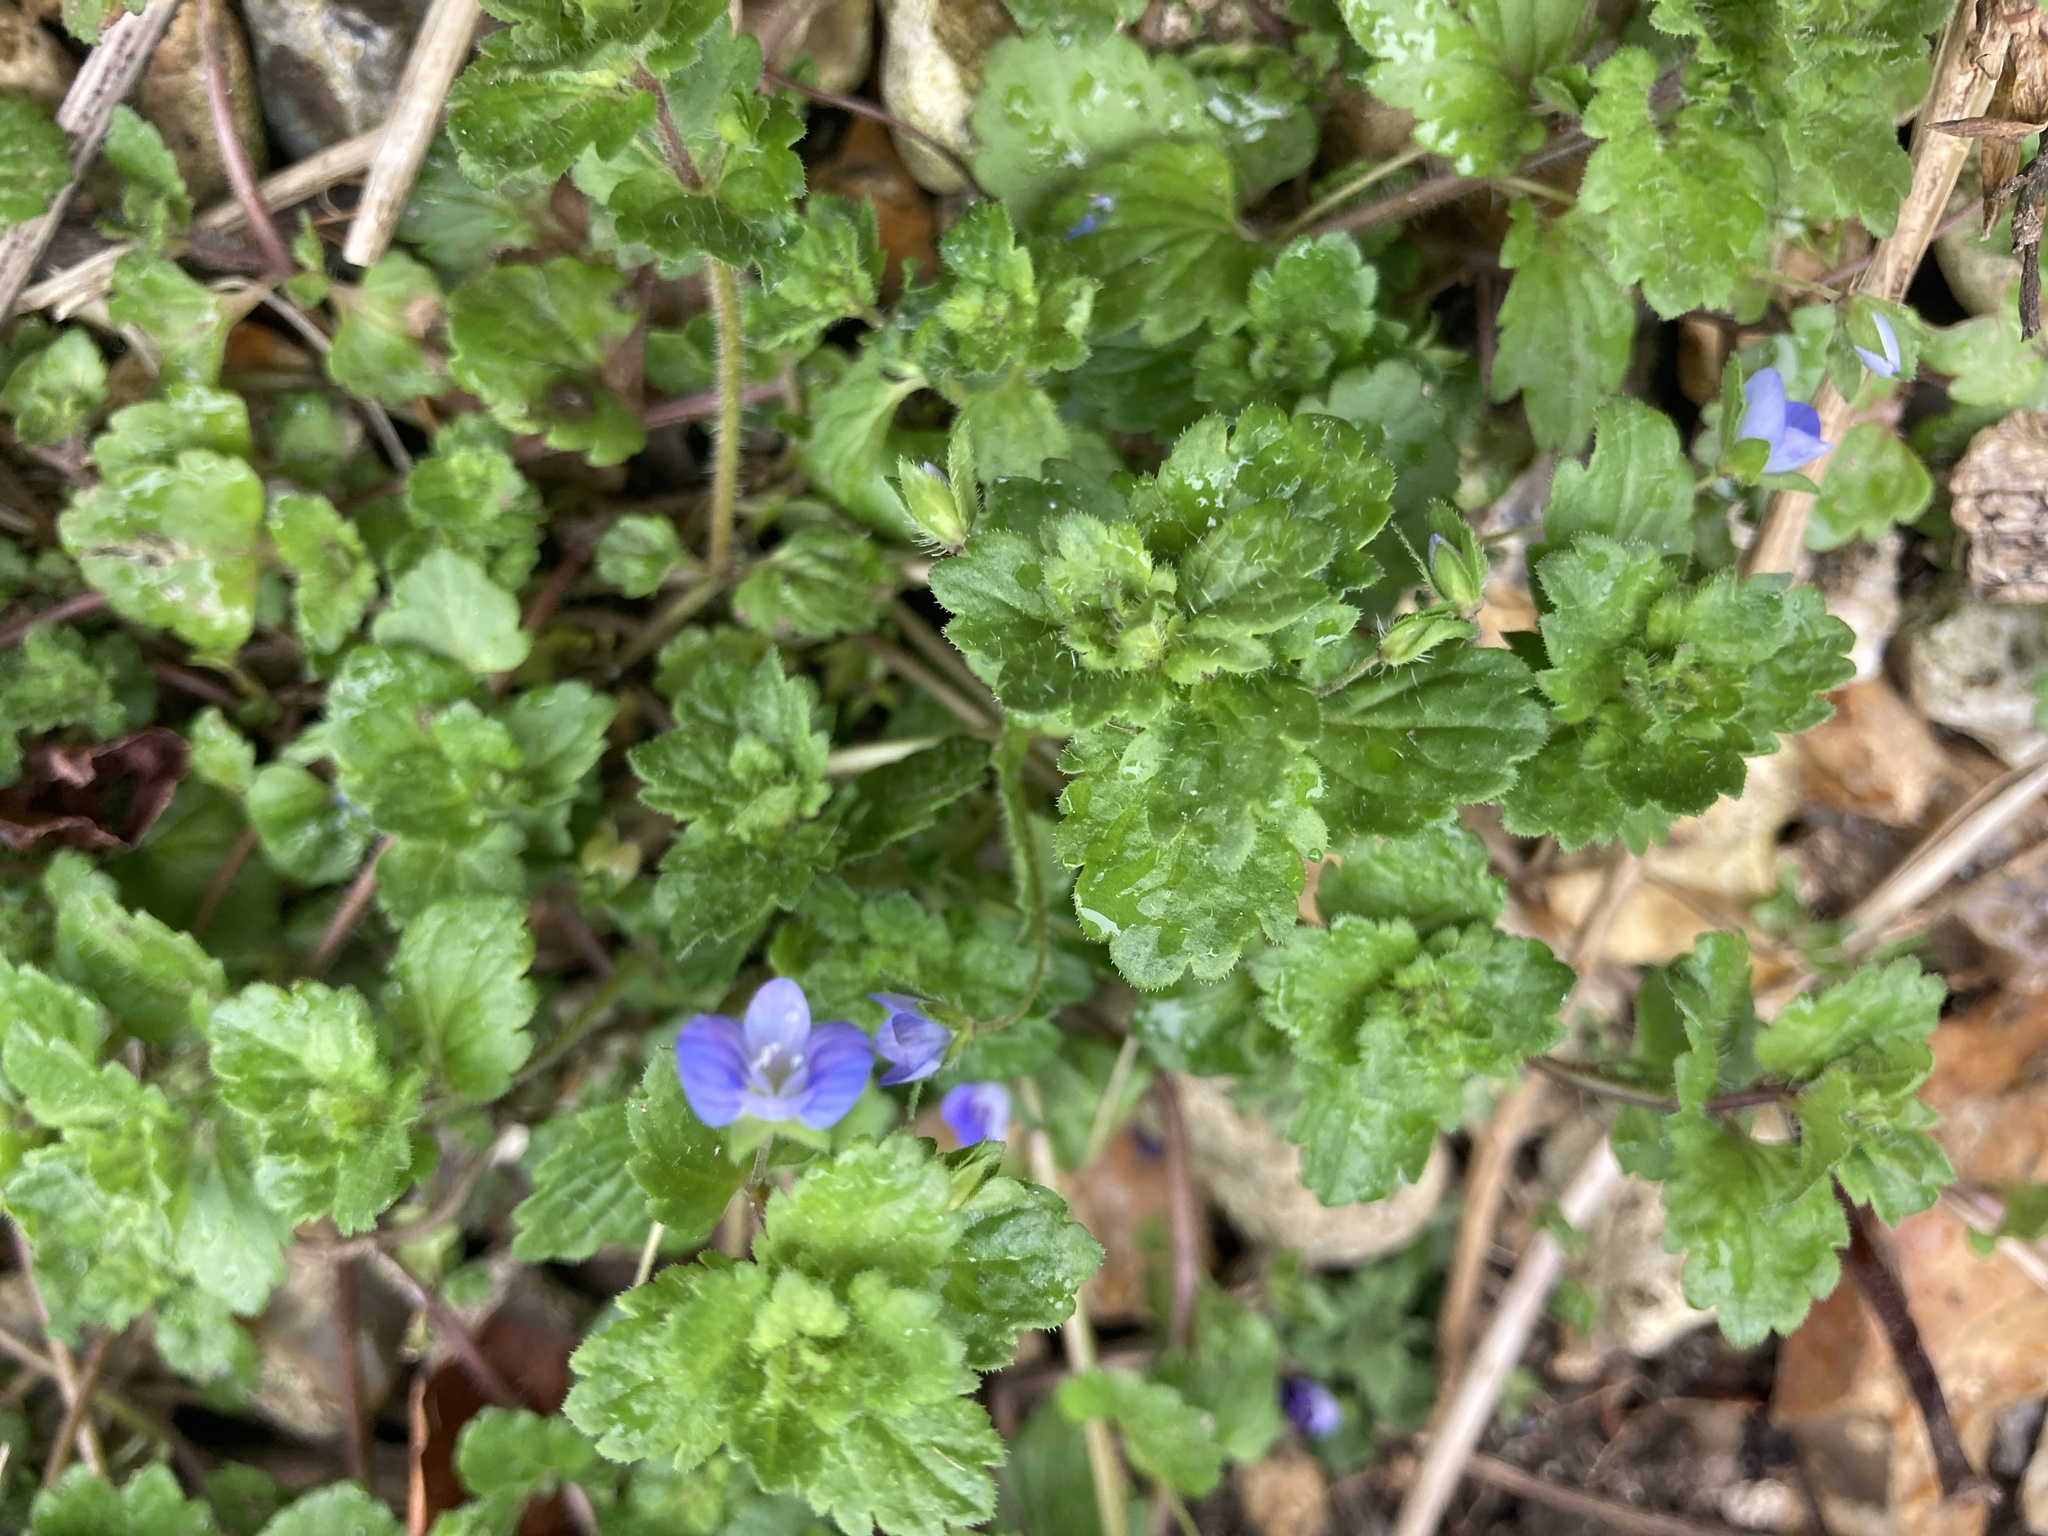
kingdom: Plantae
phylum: Tracheophyta
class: Magnoliopsida
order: Lamiales
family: Plantaginaceae
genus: Veronica
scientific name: Veronica persica
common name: Common field-speedwell
